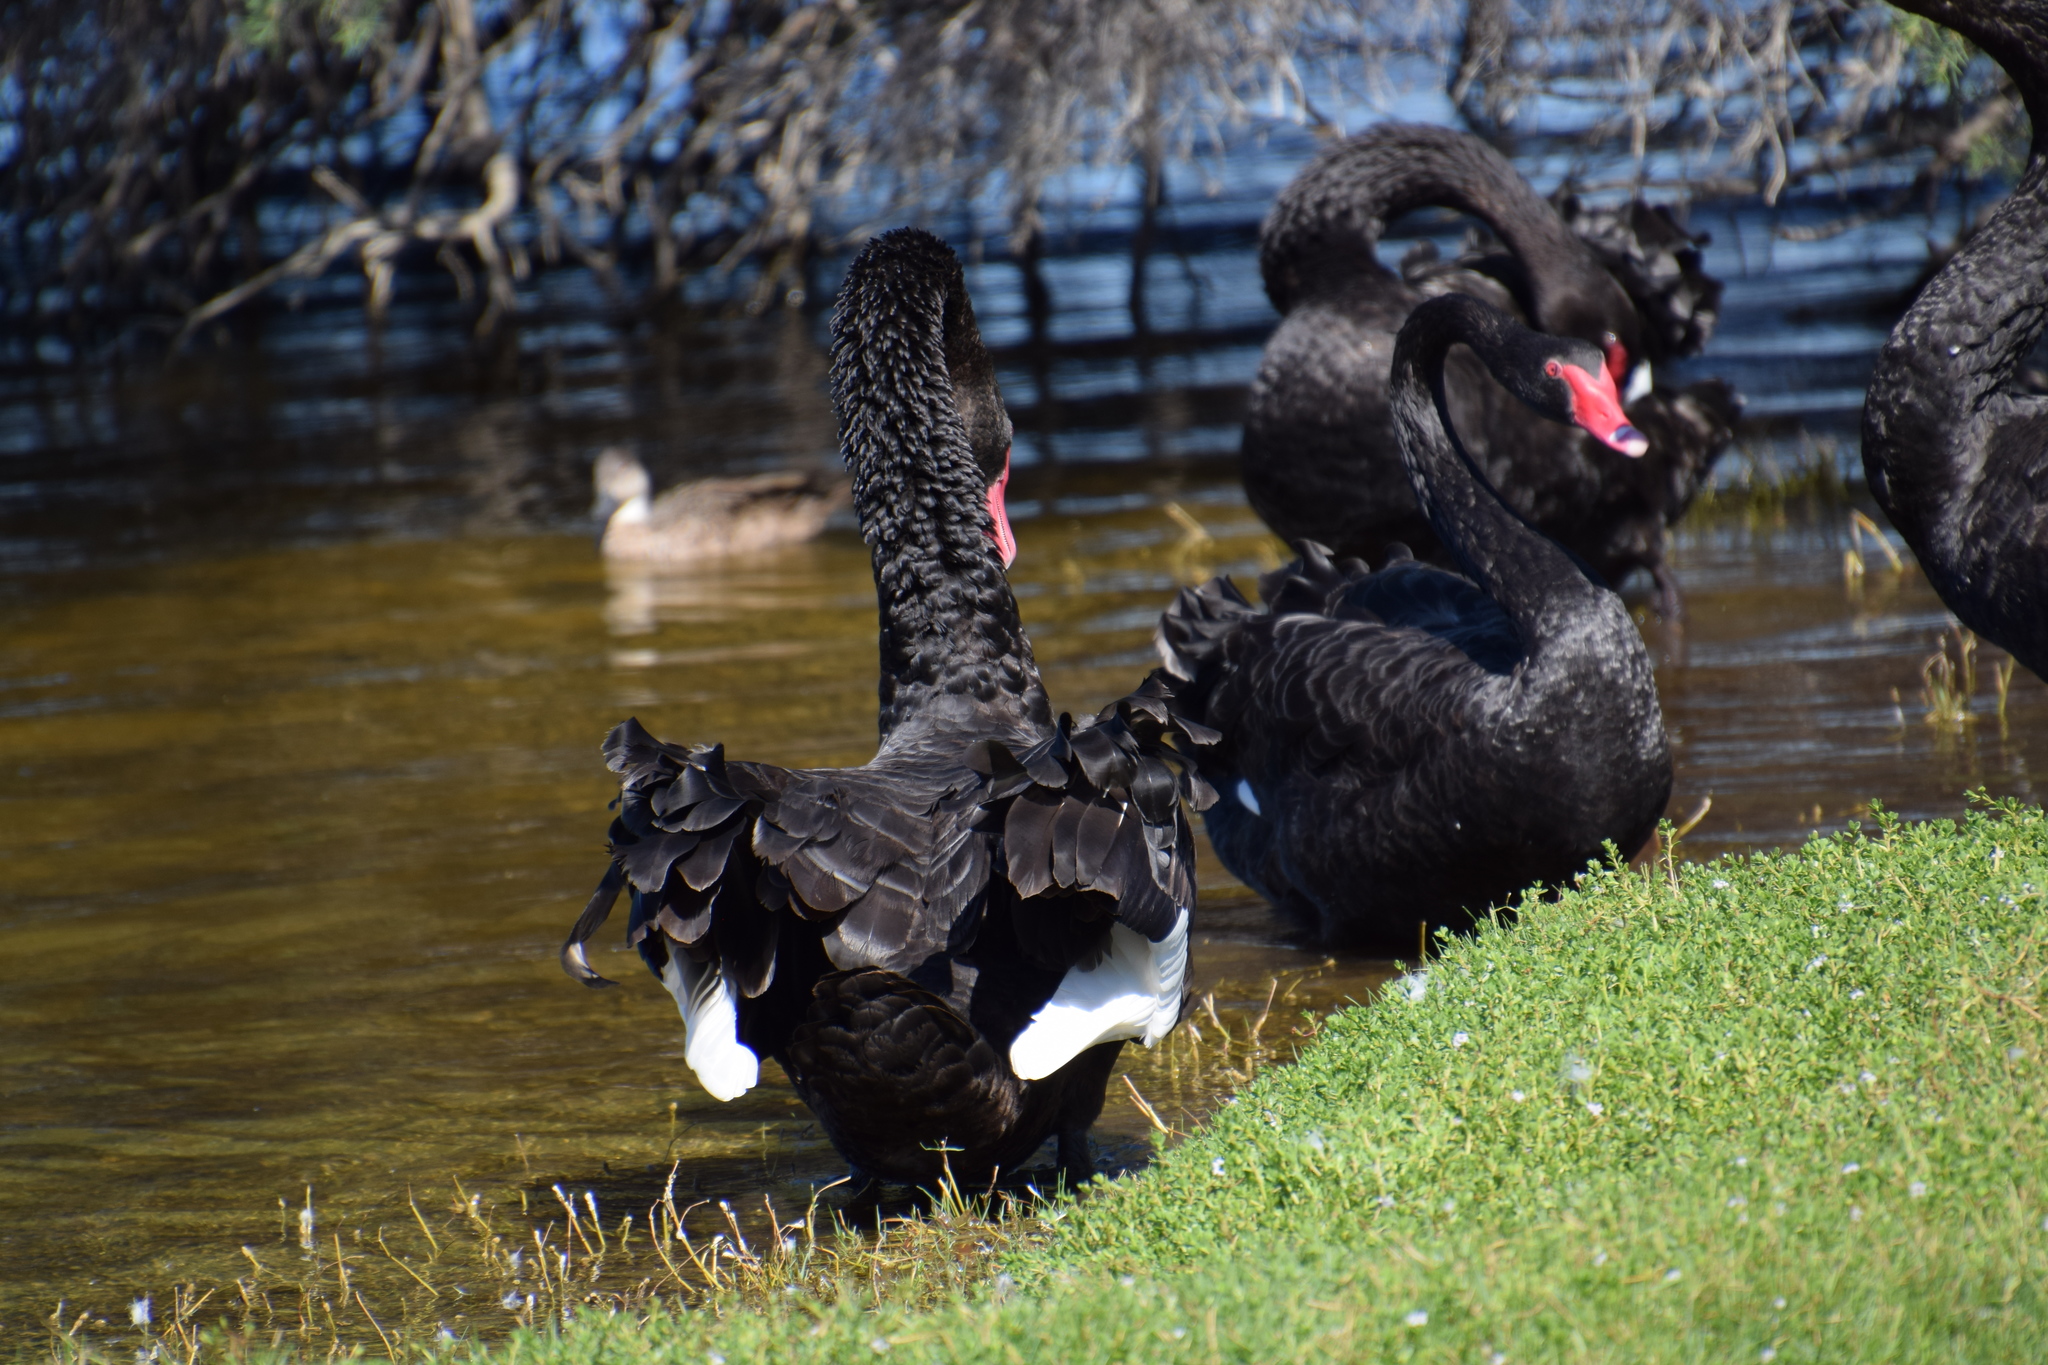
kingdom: Animalia
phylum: Chordata
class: Aves
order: Anseriformes
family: Anatidae
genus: Cygnus
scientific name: Cygnus atratus
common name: Black swan
